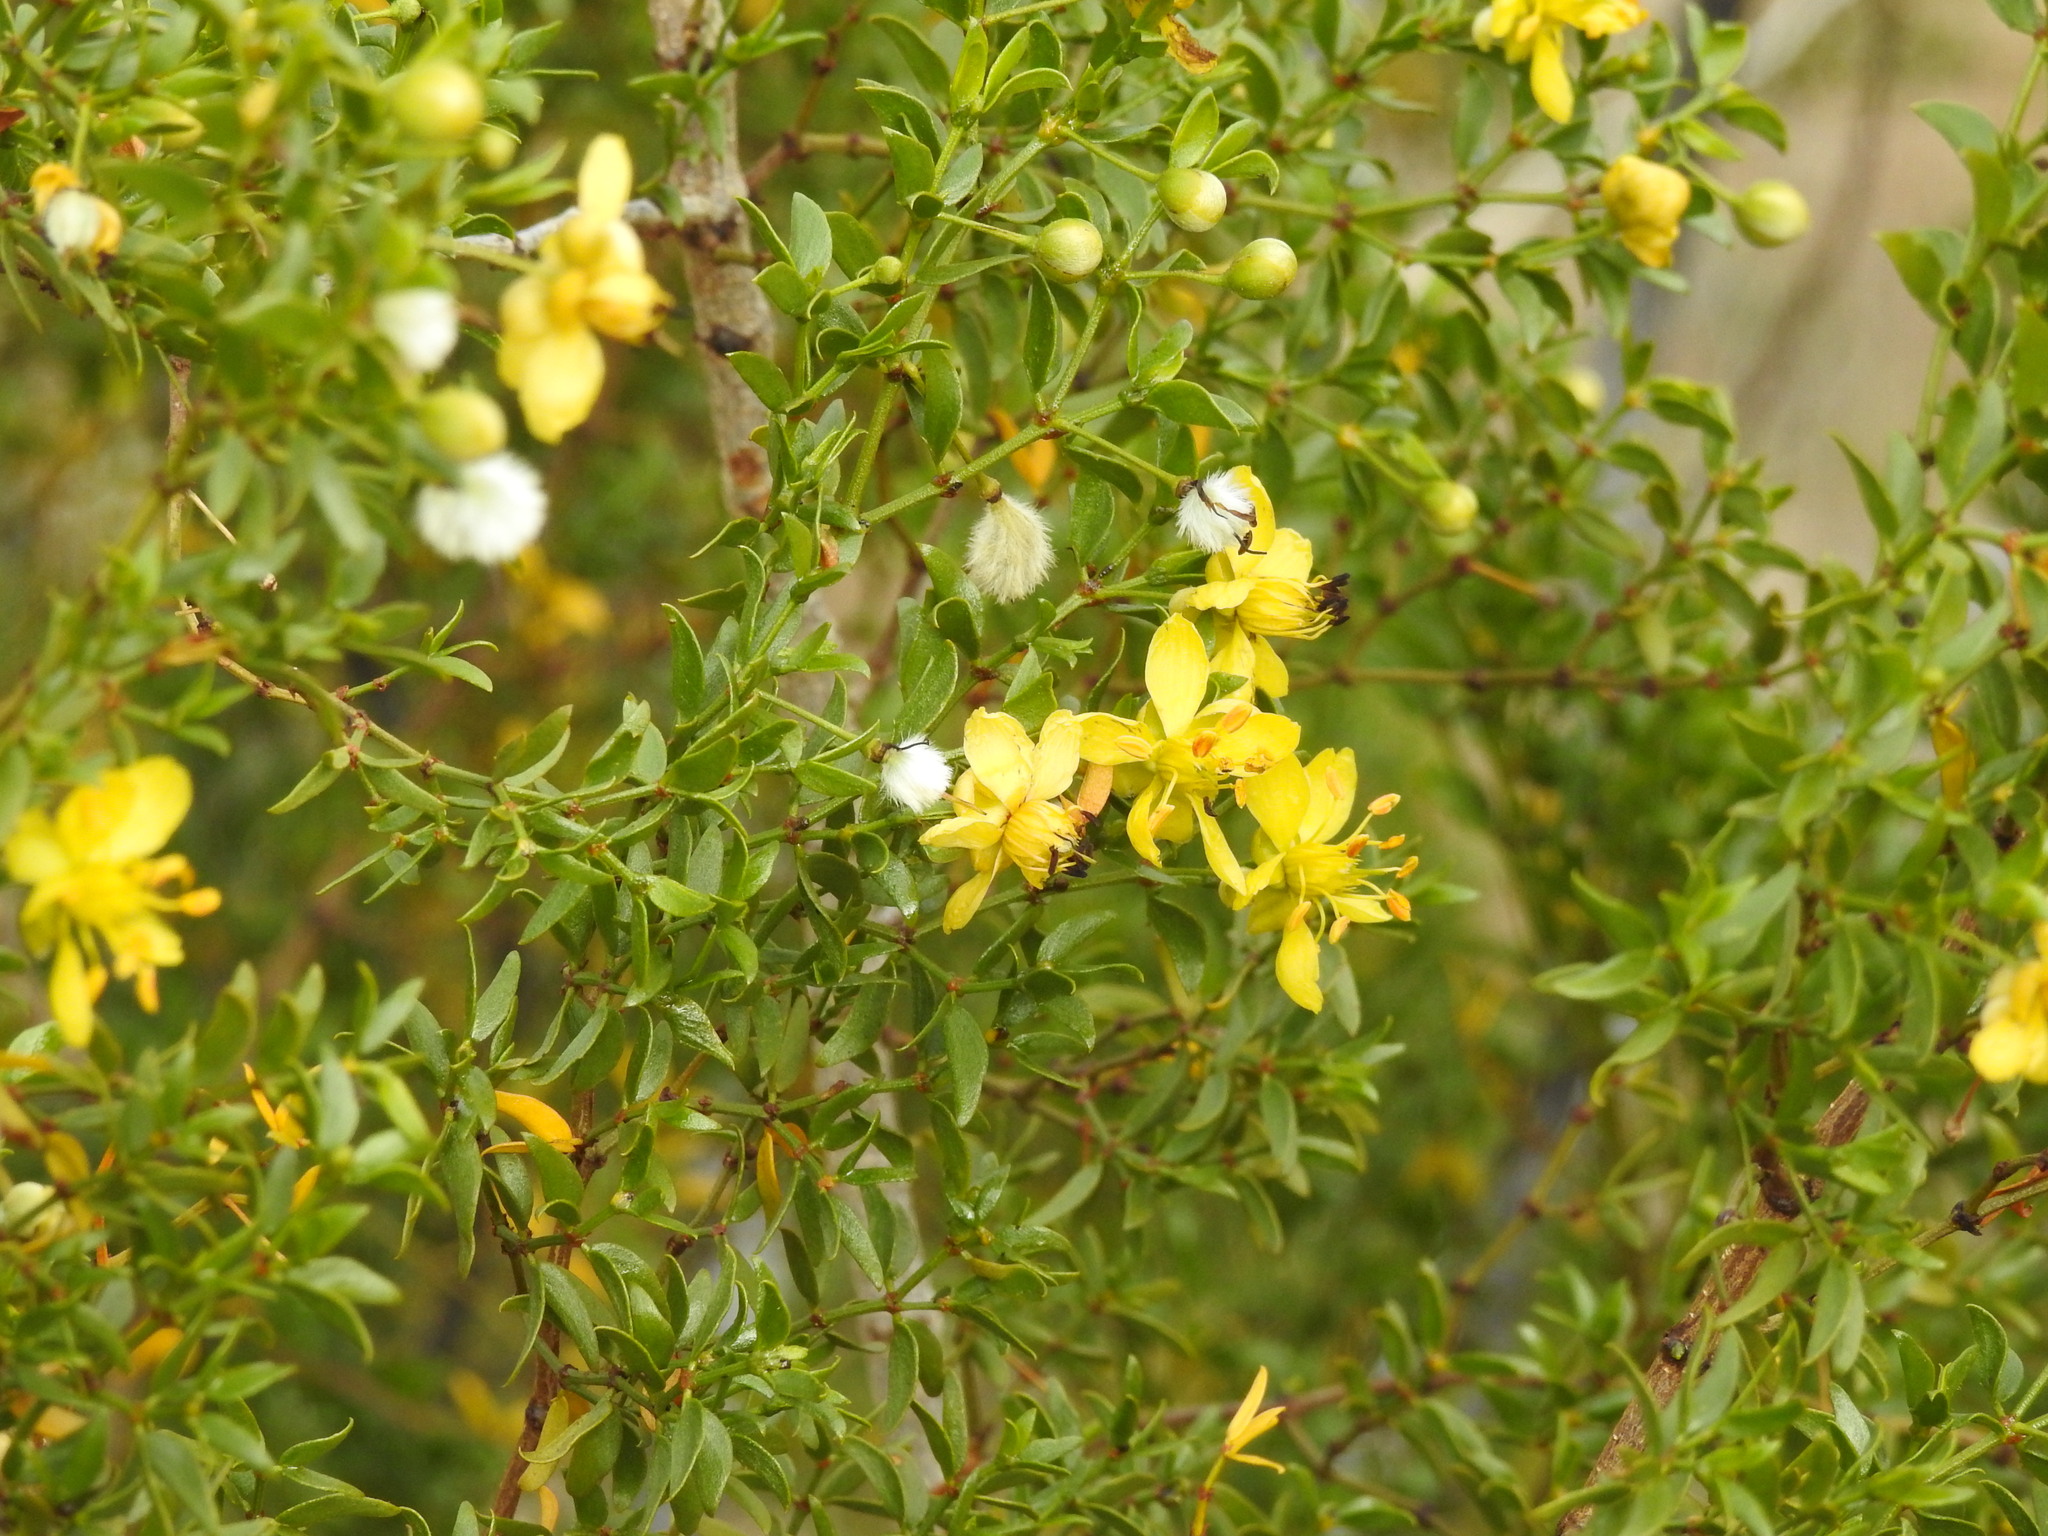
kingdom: Plantae
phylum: Tracheophyta
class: Magnoliopsida
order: Zygophyllales
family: Zygophyllaceae
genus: Larrea
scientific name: Larrea tridentata
